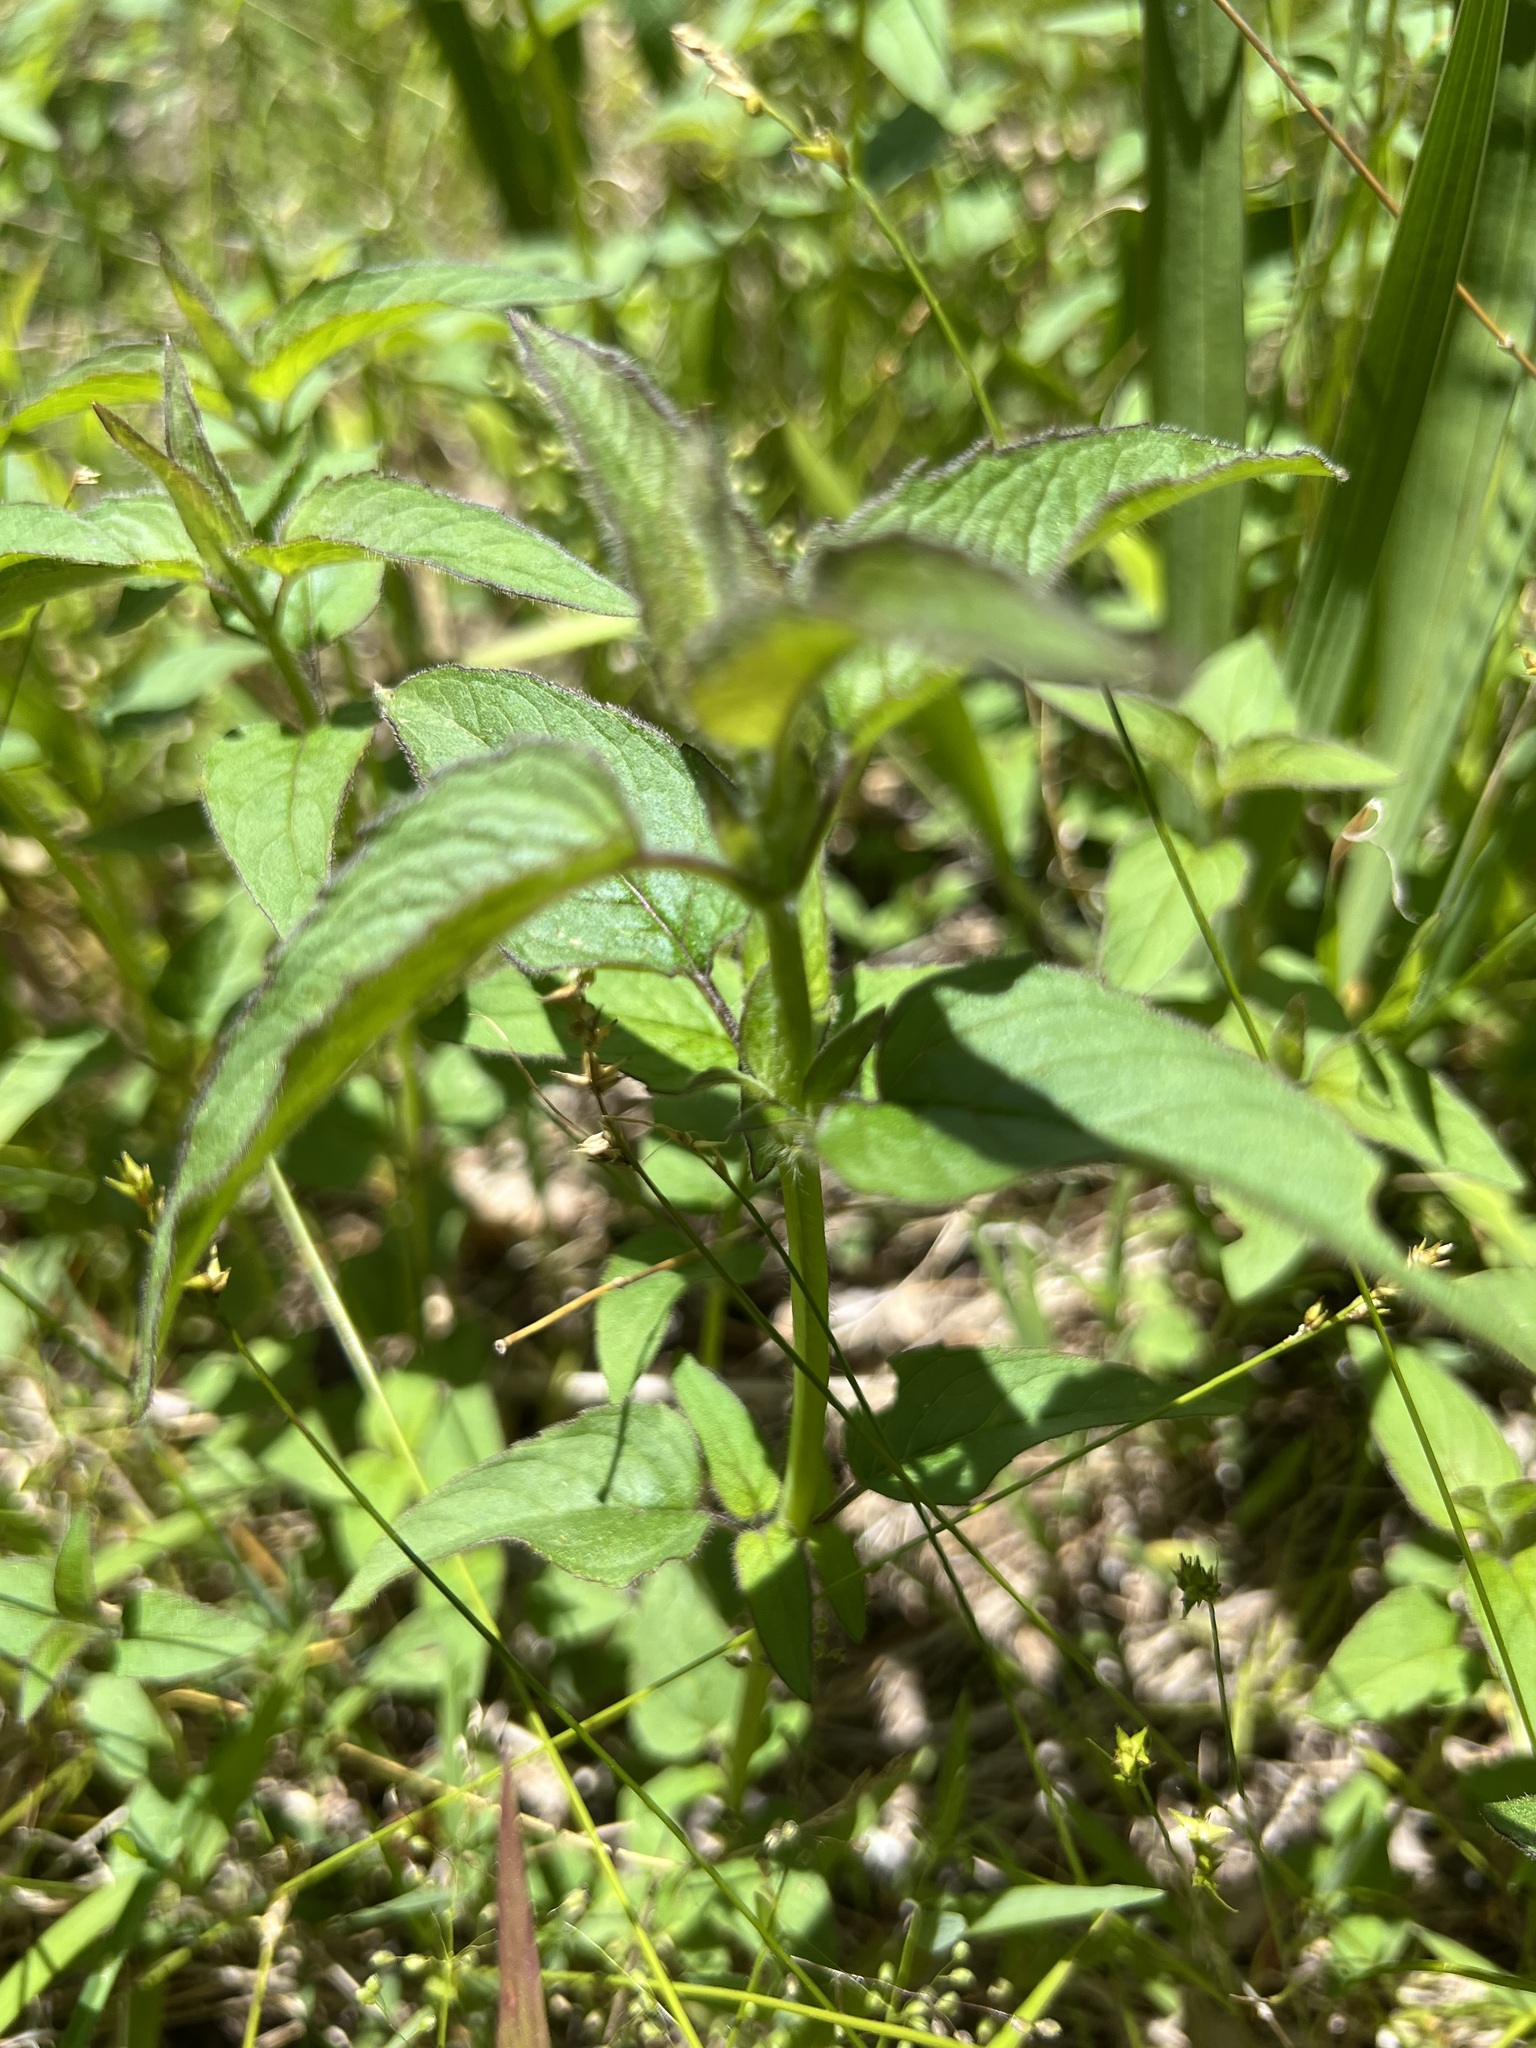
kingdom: Plantae
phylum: Tracheophyta
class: Magnoliopsida
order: Lamiales
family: Lamiaceae
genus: Prunella
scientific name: Prunella vulgaris
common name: Heal-all
